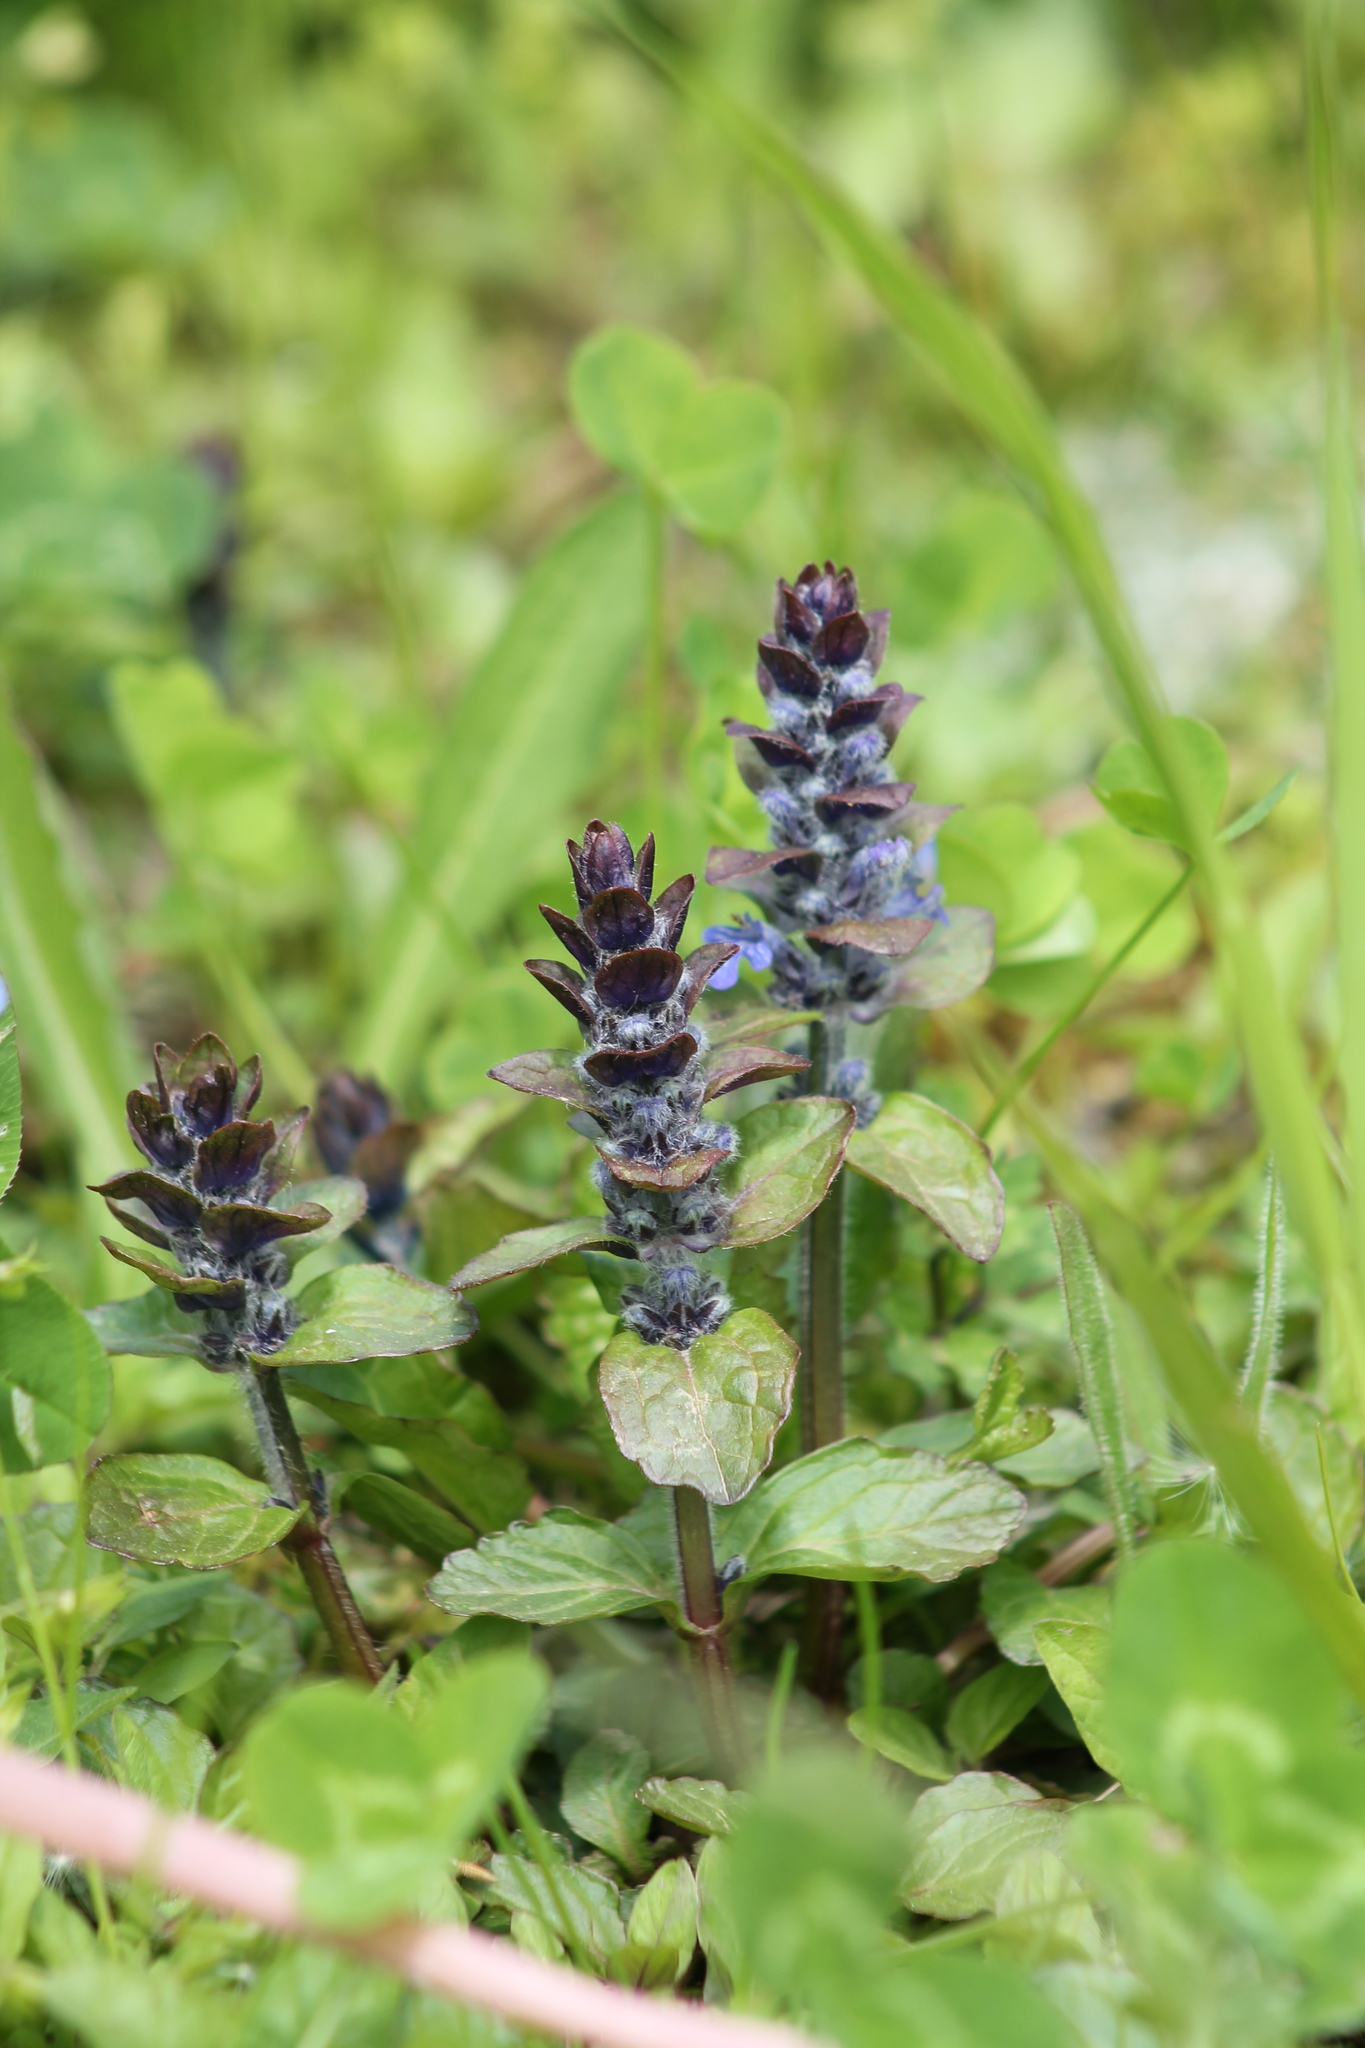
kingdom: Plantae
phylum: Tracheophyta
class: Magnoliopsida
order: Lamiales
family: Lamiaceae
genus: Ajuga
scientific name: Ajuga reptans
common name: Bugle
